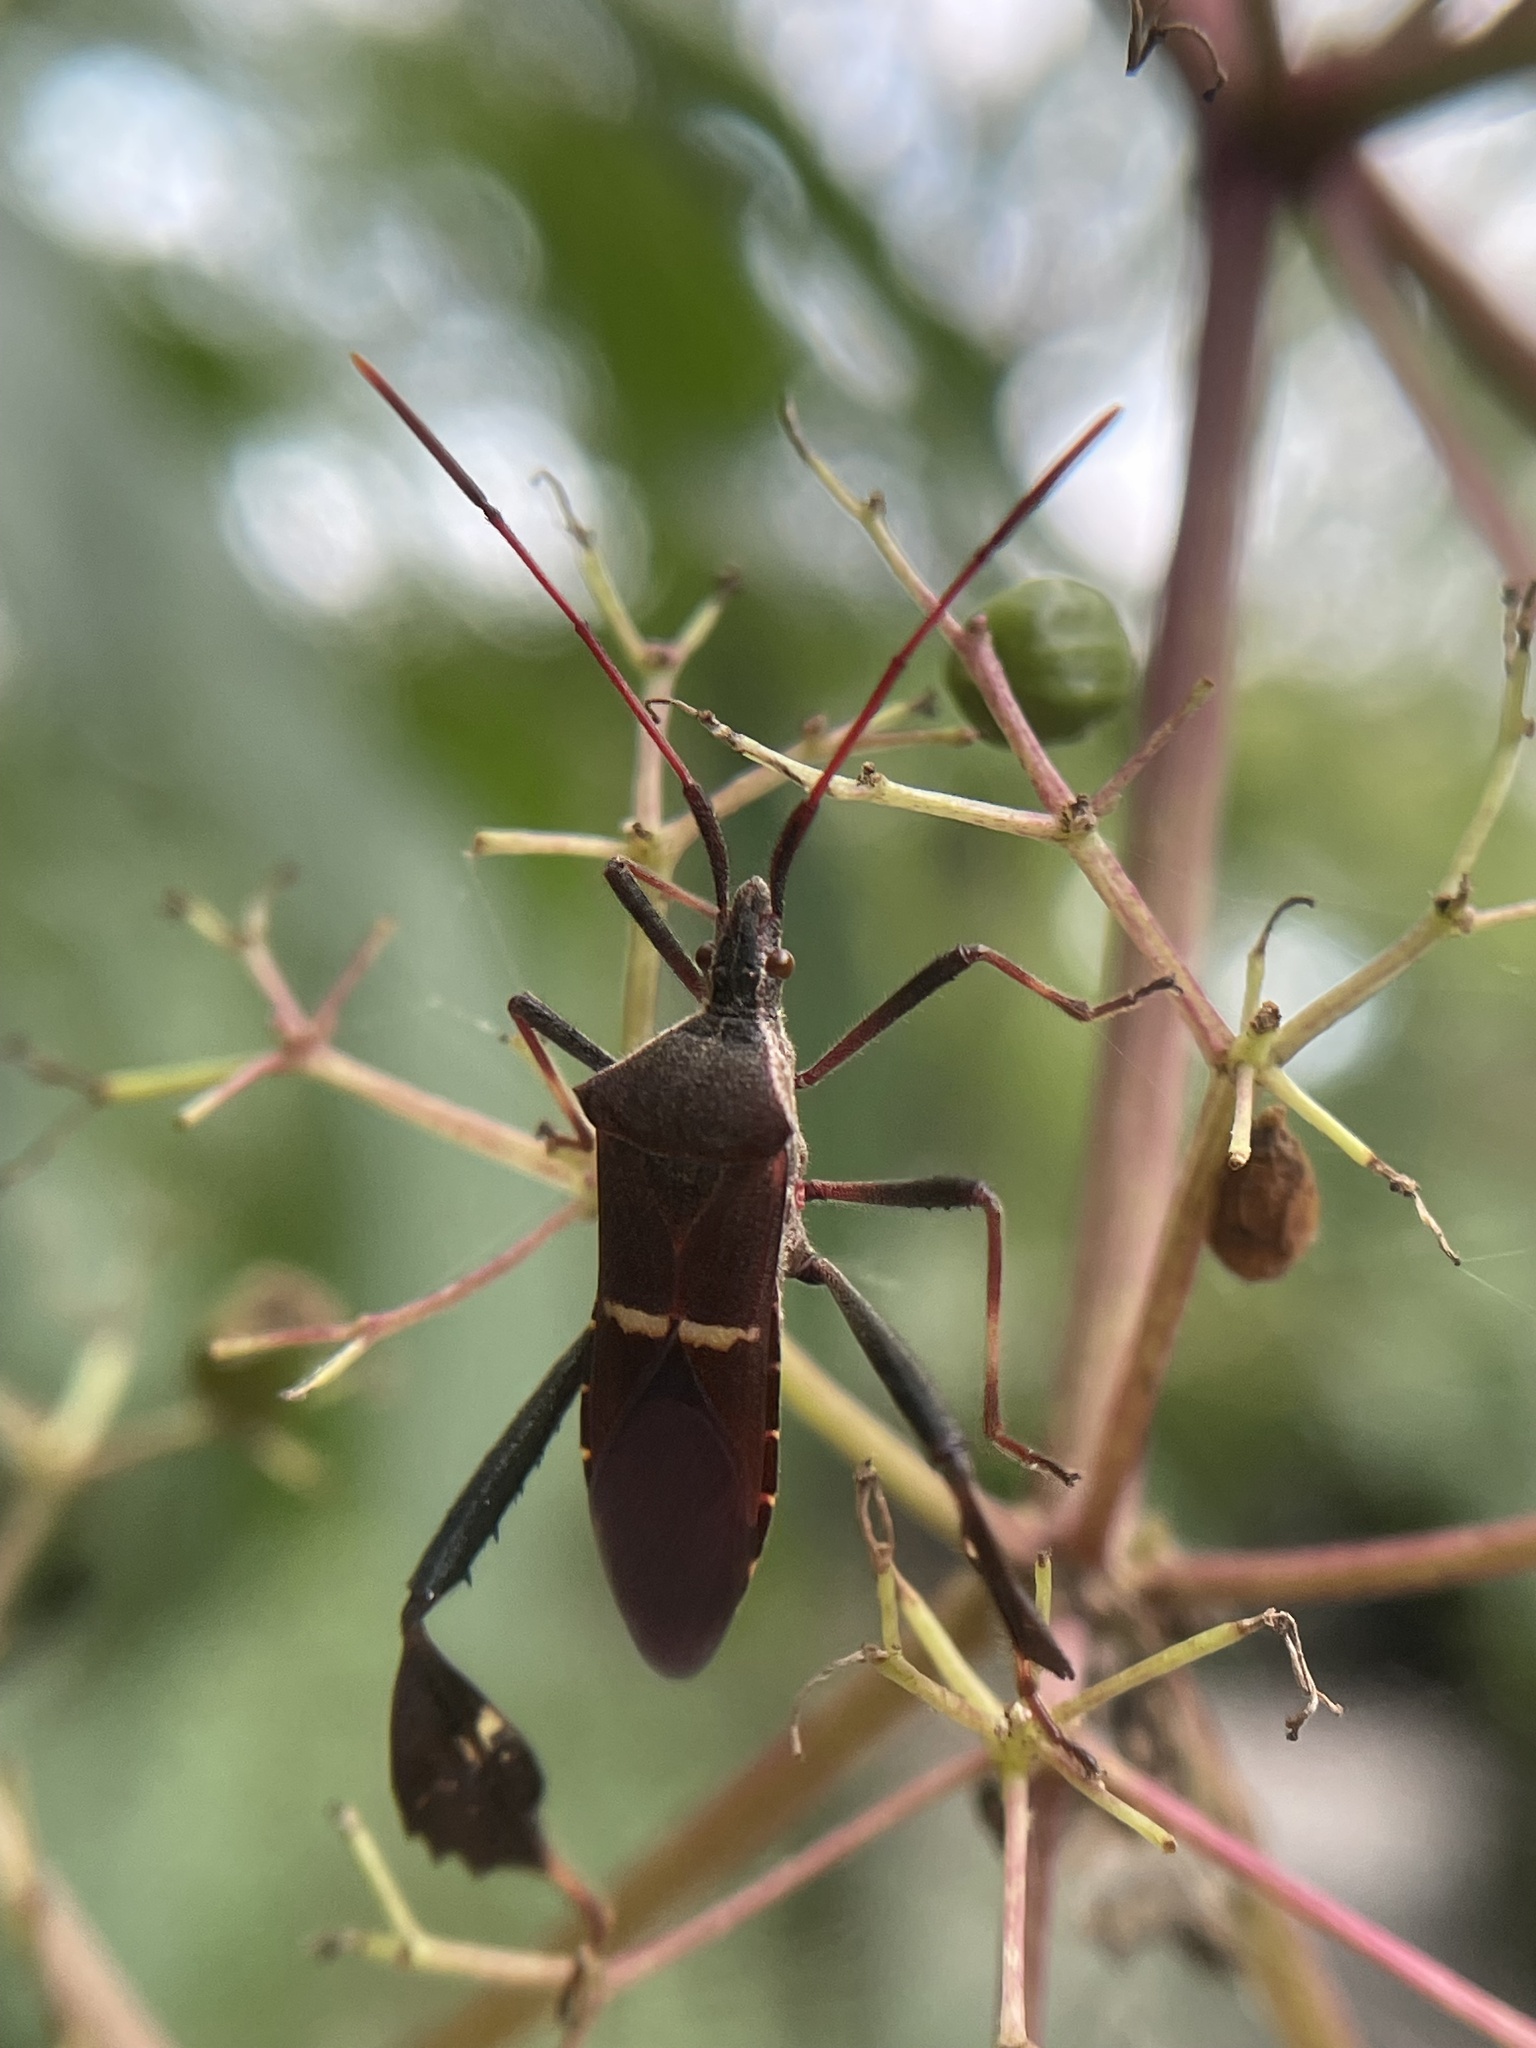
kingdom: Animalia
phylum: Arthropoda
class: Insecta
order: Hemiptera
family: Coreidae
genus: Leptoglossus
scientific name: Leptoglossus phyllopus
